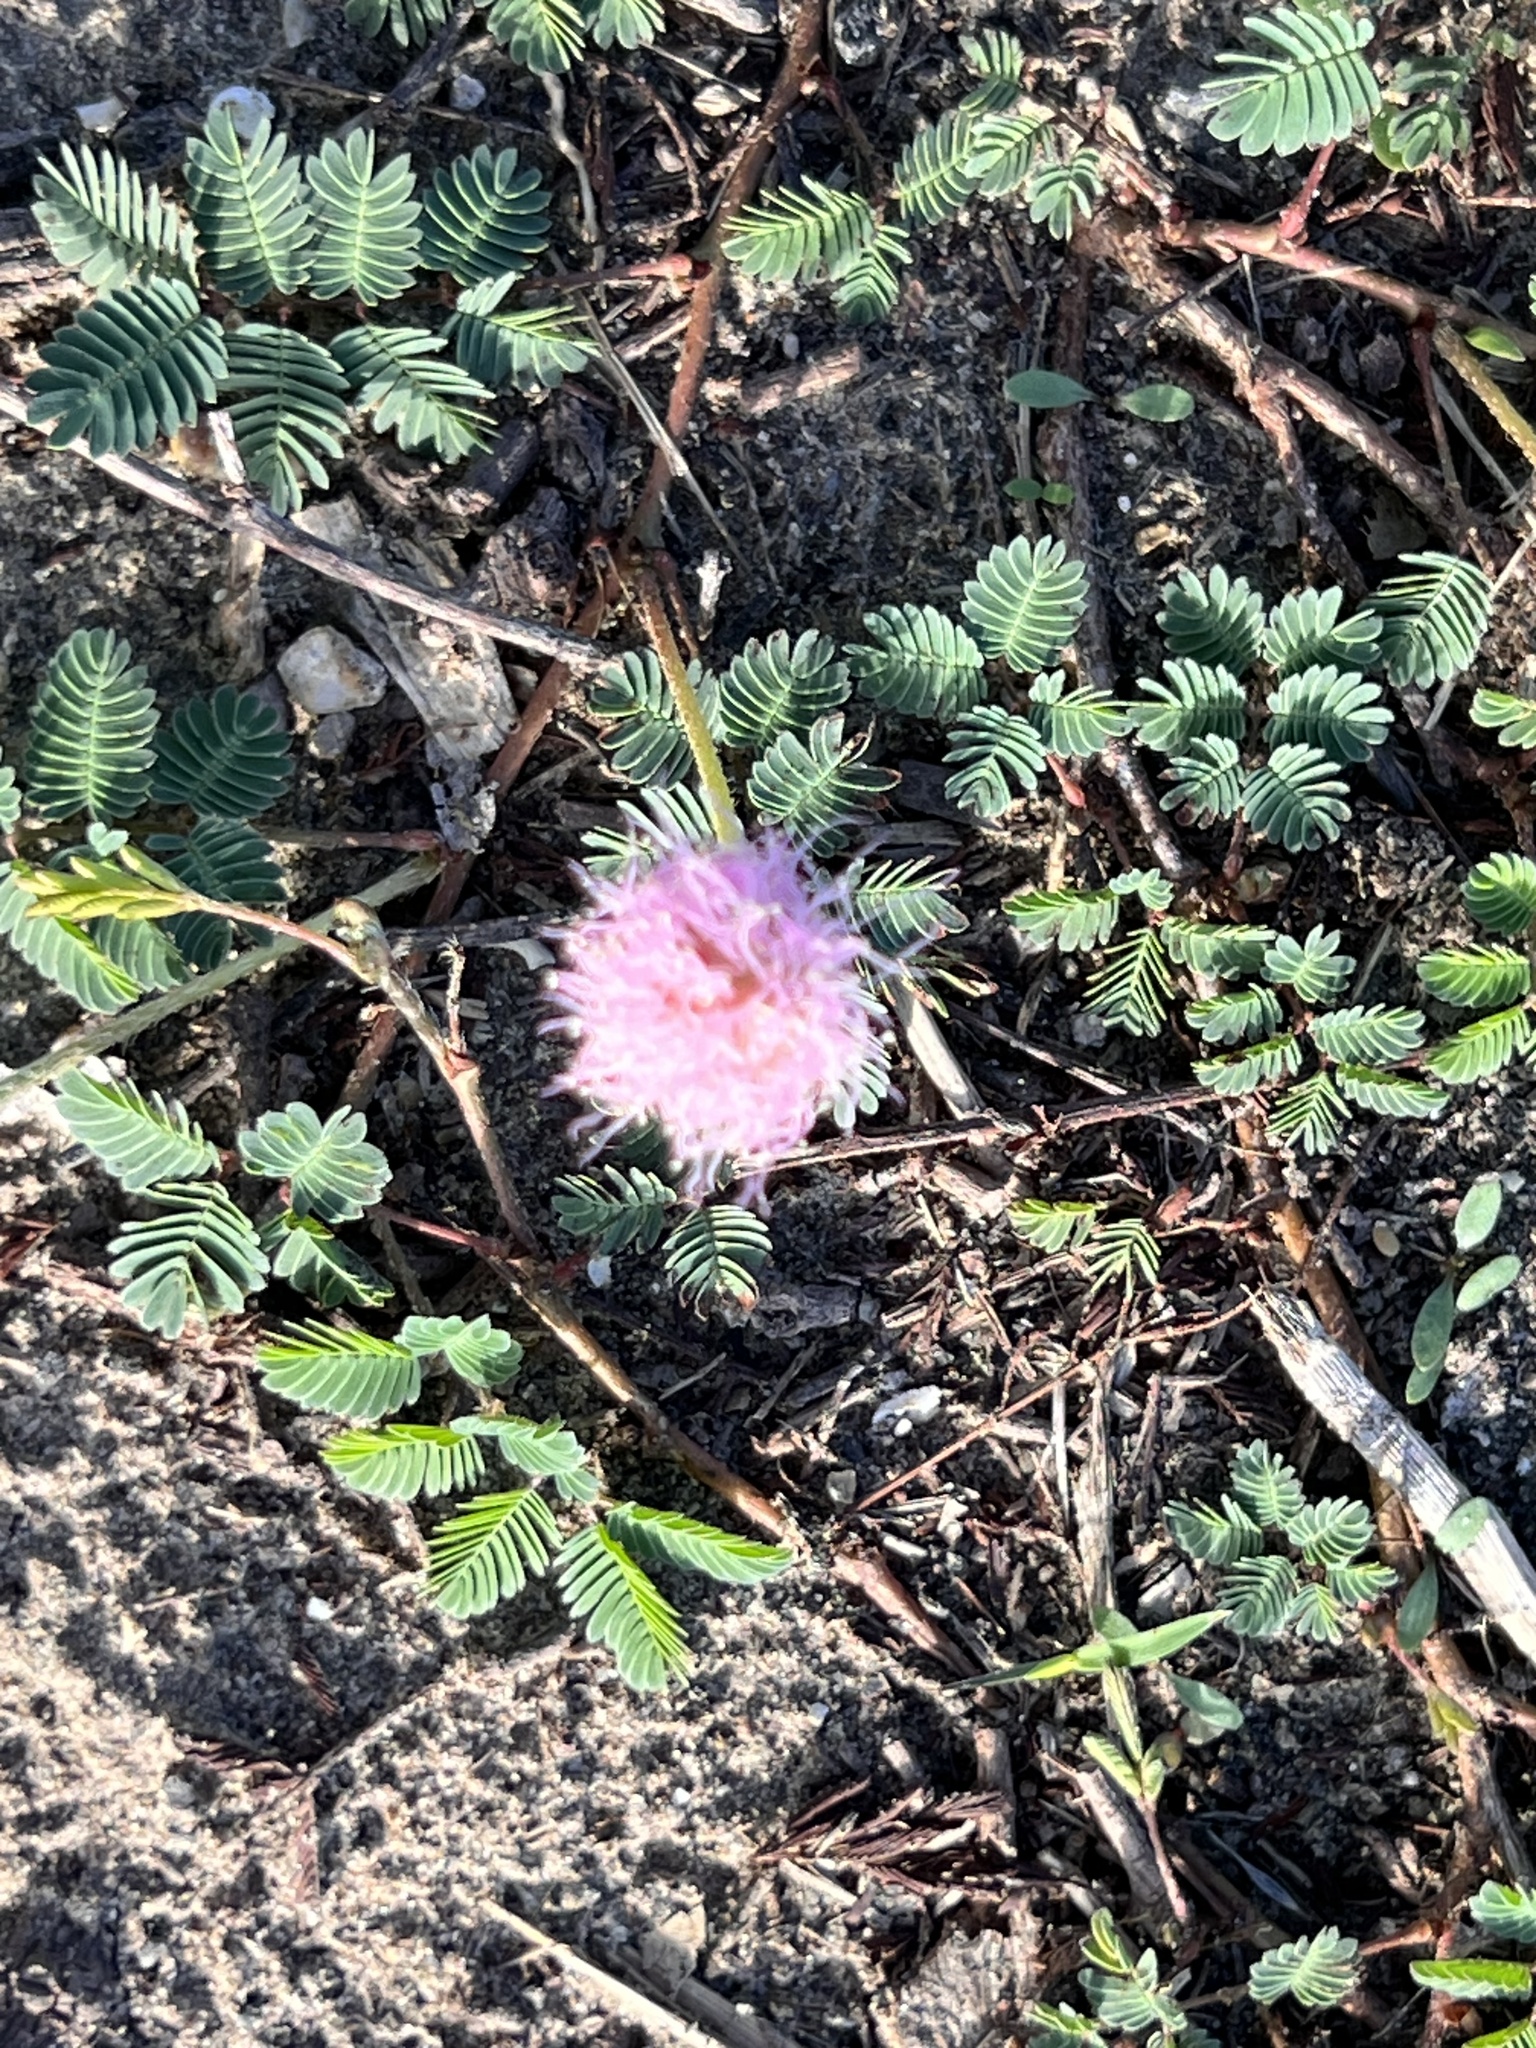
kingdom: Plantae
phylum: Tracheophyta
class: Magnoliopsida
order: Fabales
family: Fabaceae
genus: Mimosa
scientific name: Mimosa strigillosa
